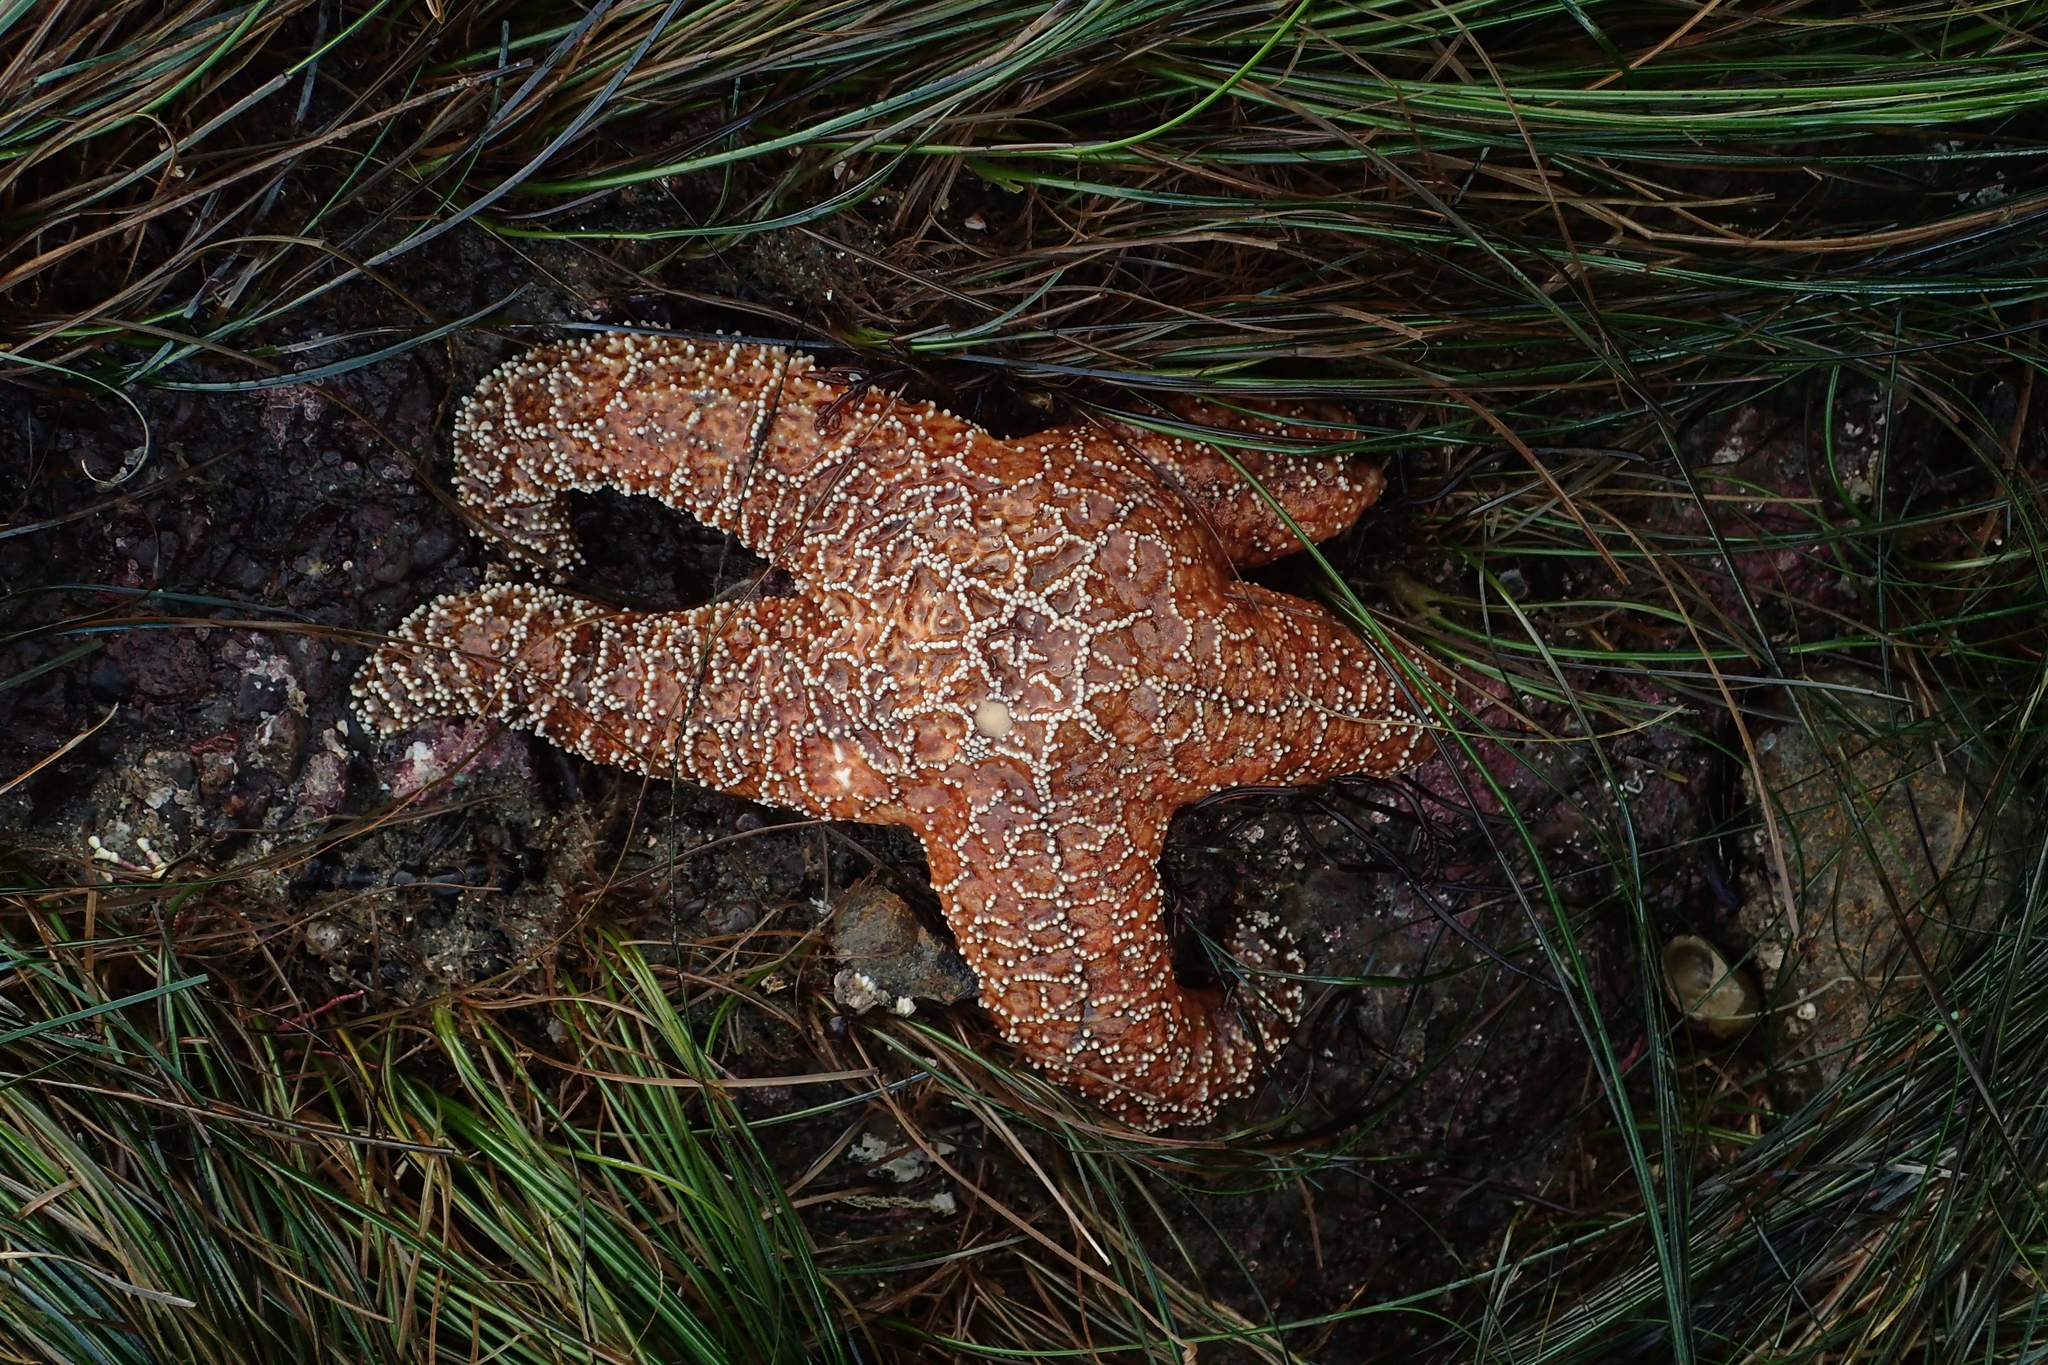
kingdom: Animalia
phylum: Echinodermata
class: Asteroidea
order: Forcipulatida
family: Asteriidae
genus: Pisaster
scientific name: Pisaster ochraceus
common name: Ochre stars
